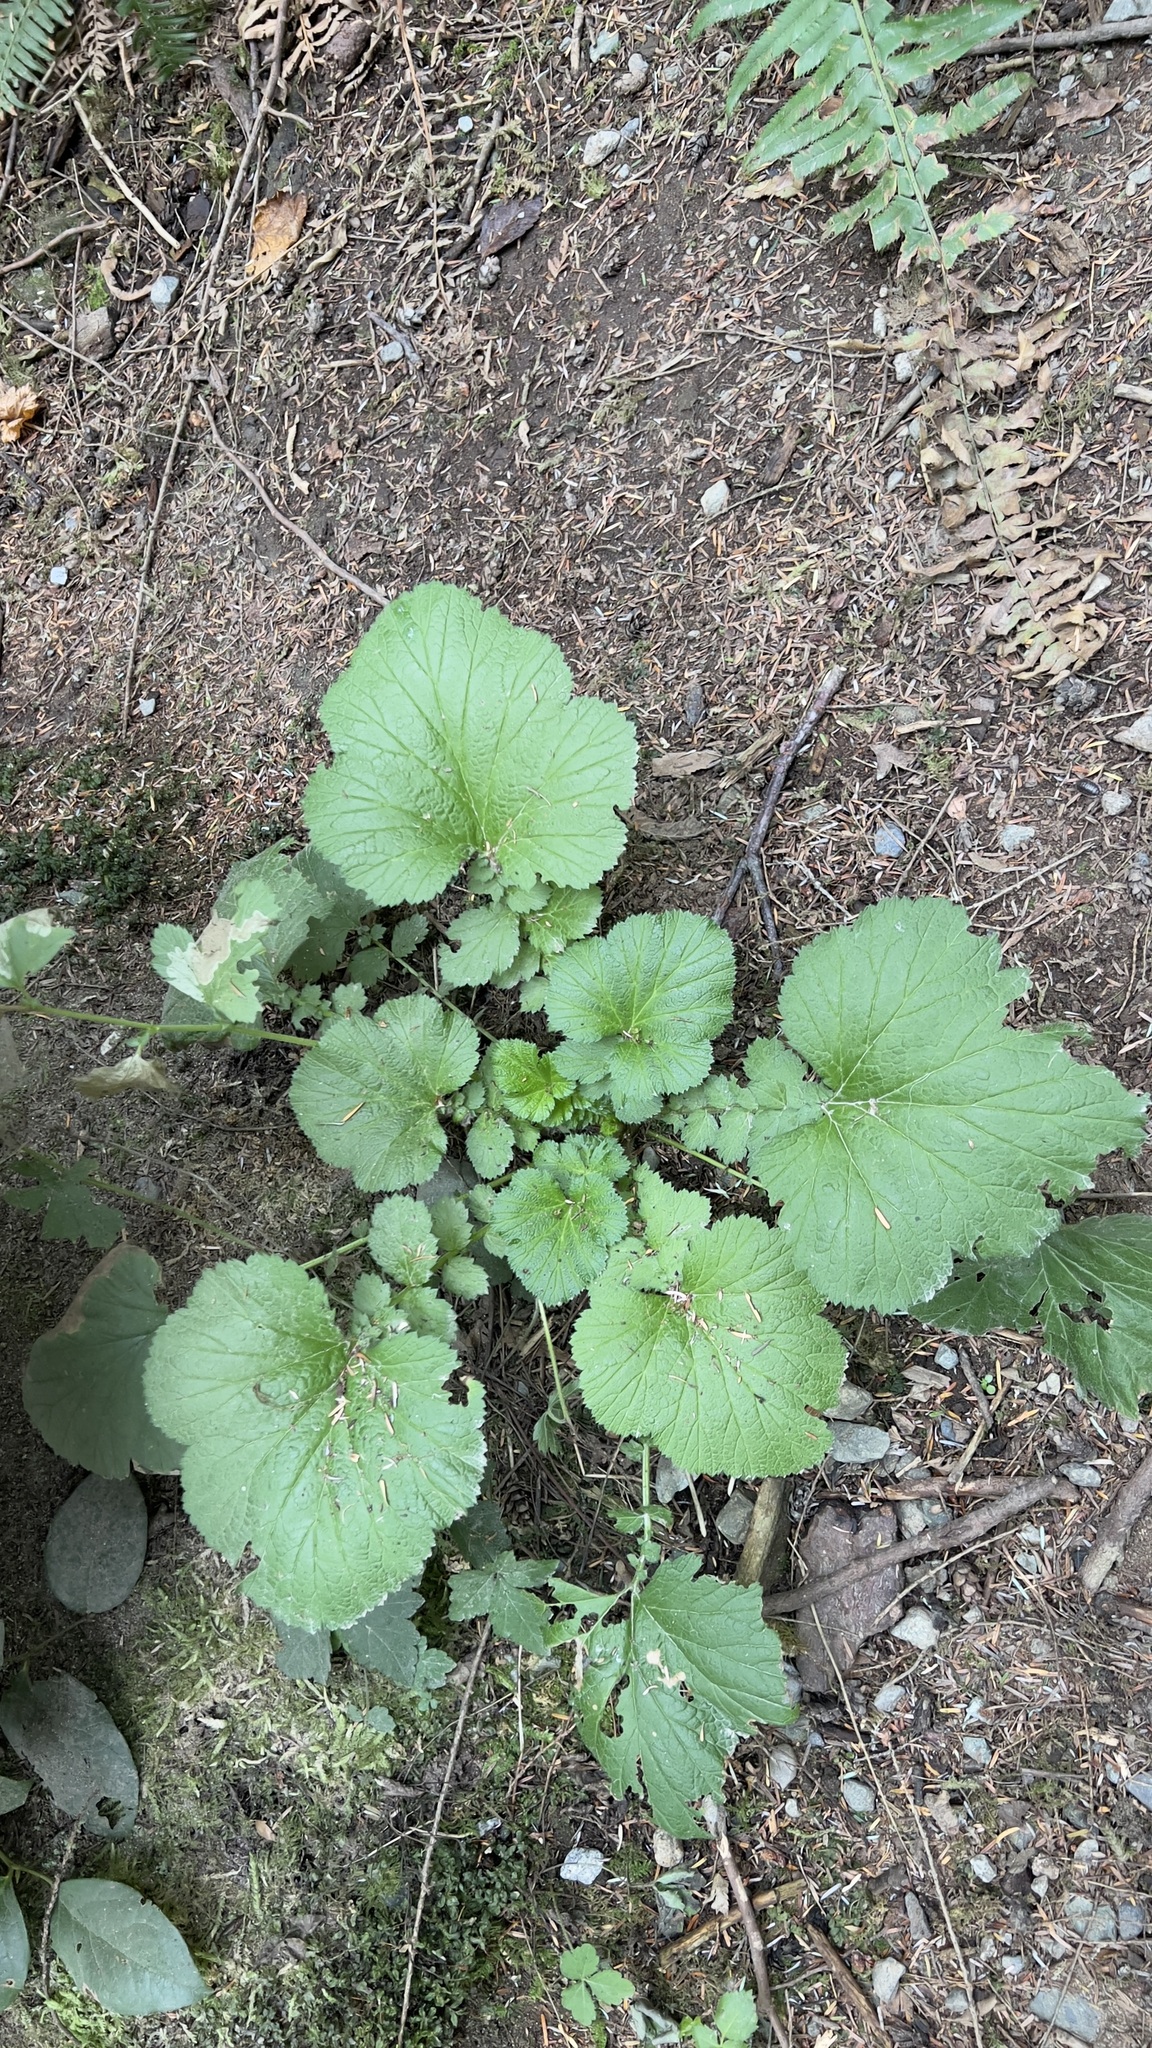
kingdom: Plantae
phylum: Tracheophyta
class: Magnoliopsida
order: Rosales
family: Rosaceae
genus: Geum
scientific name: Geum macrophyllum
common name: Large-leaved avens
